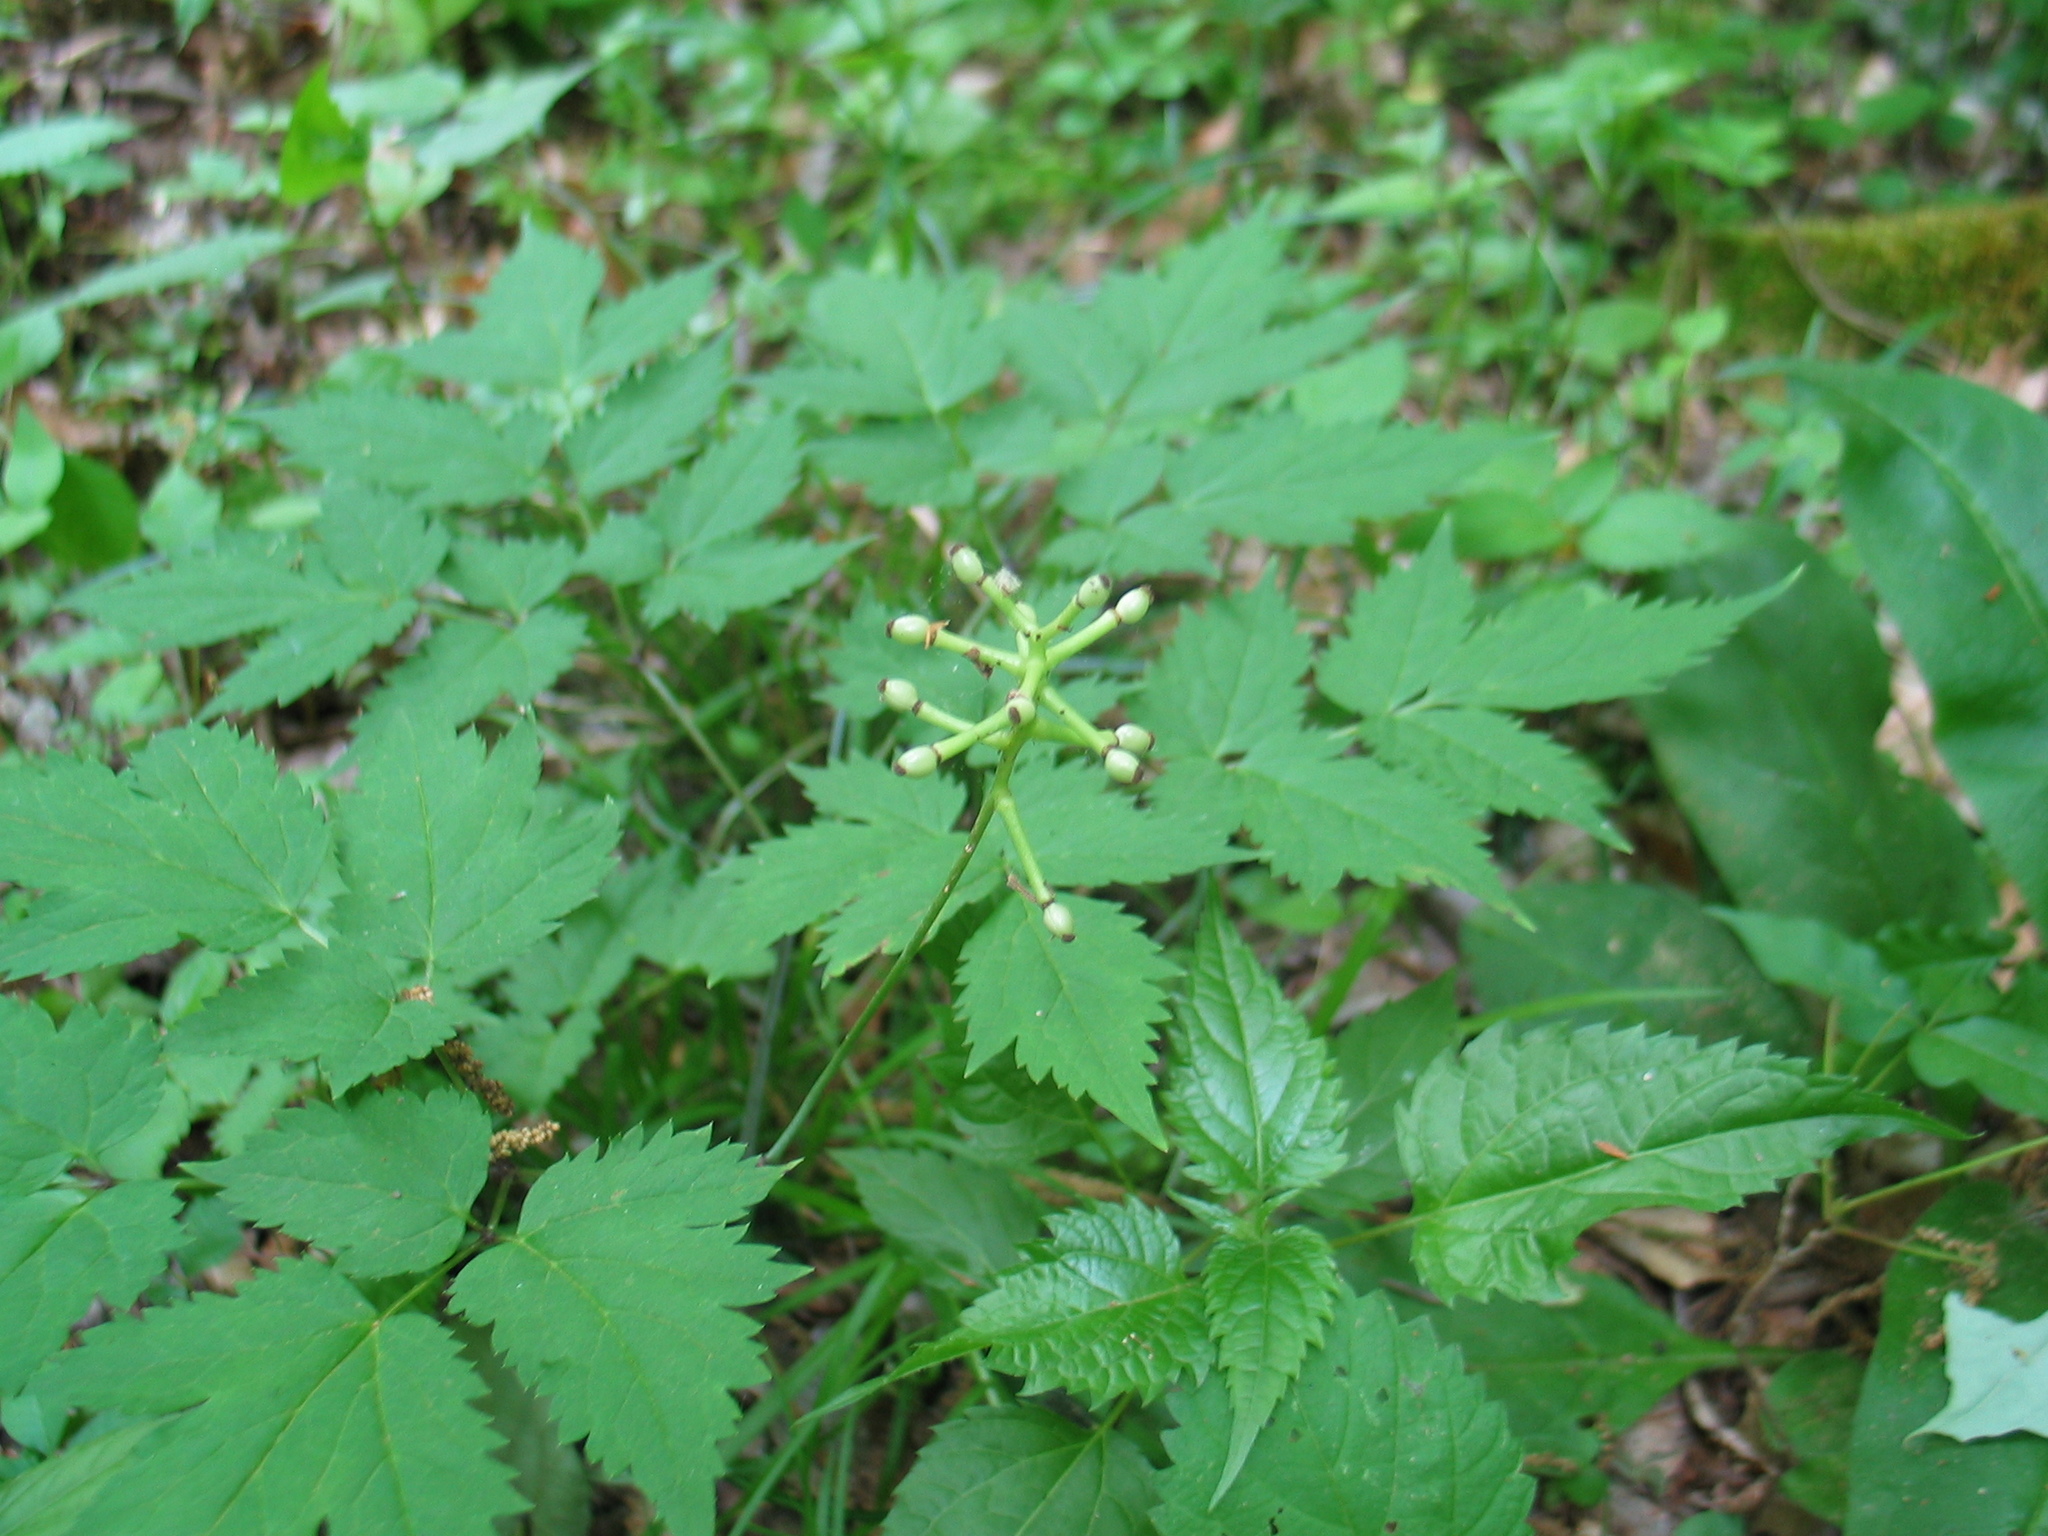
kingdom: Plantae
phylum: Tracheophyta
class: Magnoliopsida
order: Ranunculales
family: Ranunculaceae
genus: Actaea
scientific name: Actaea pachypoda
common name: Doll's-eyes
